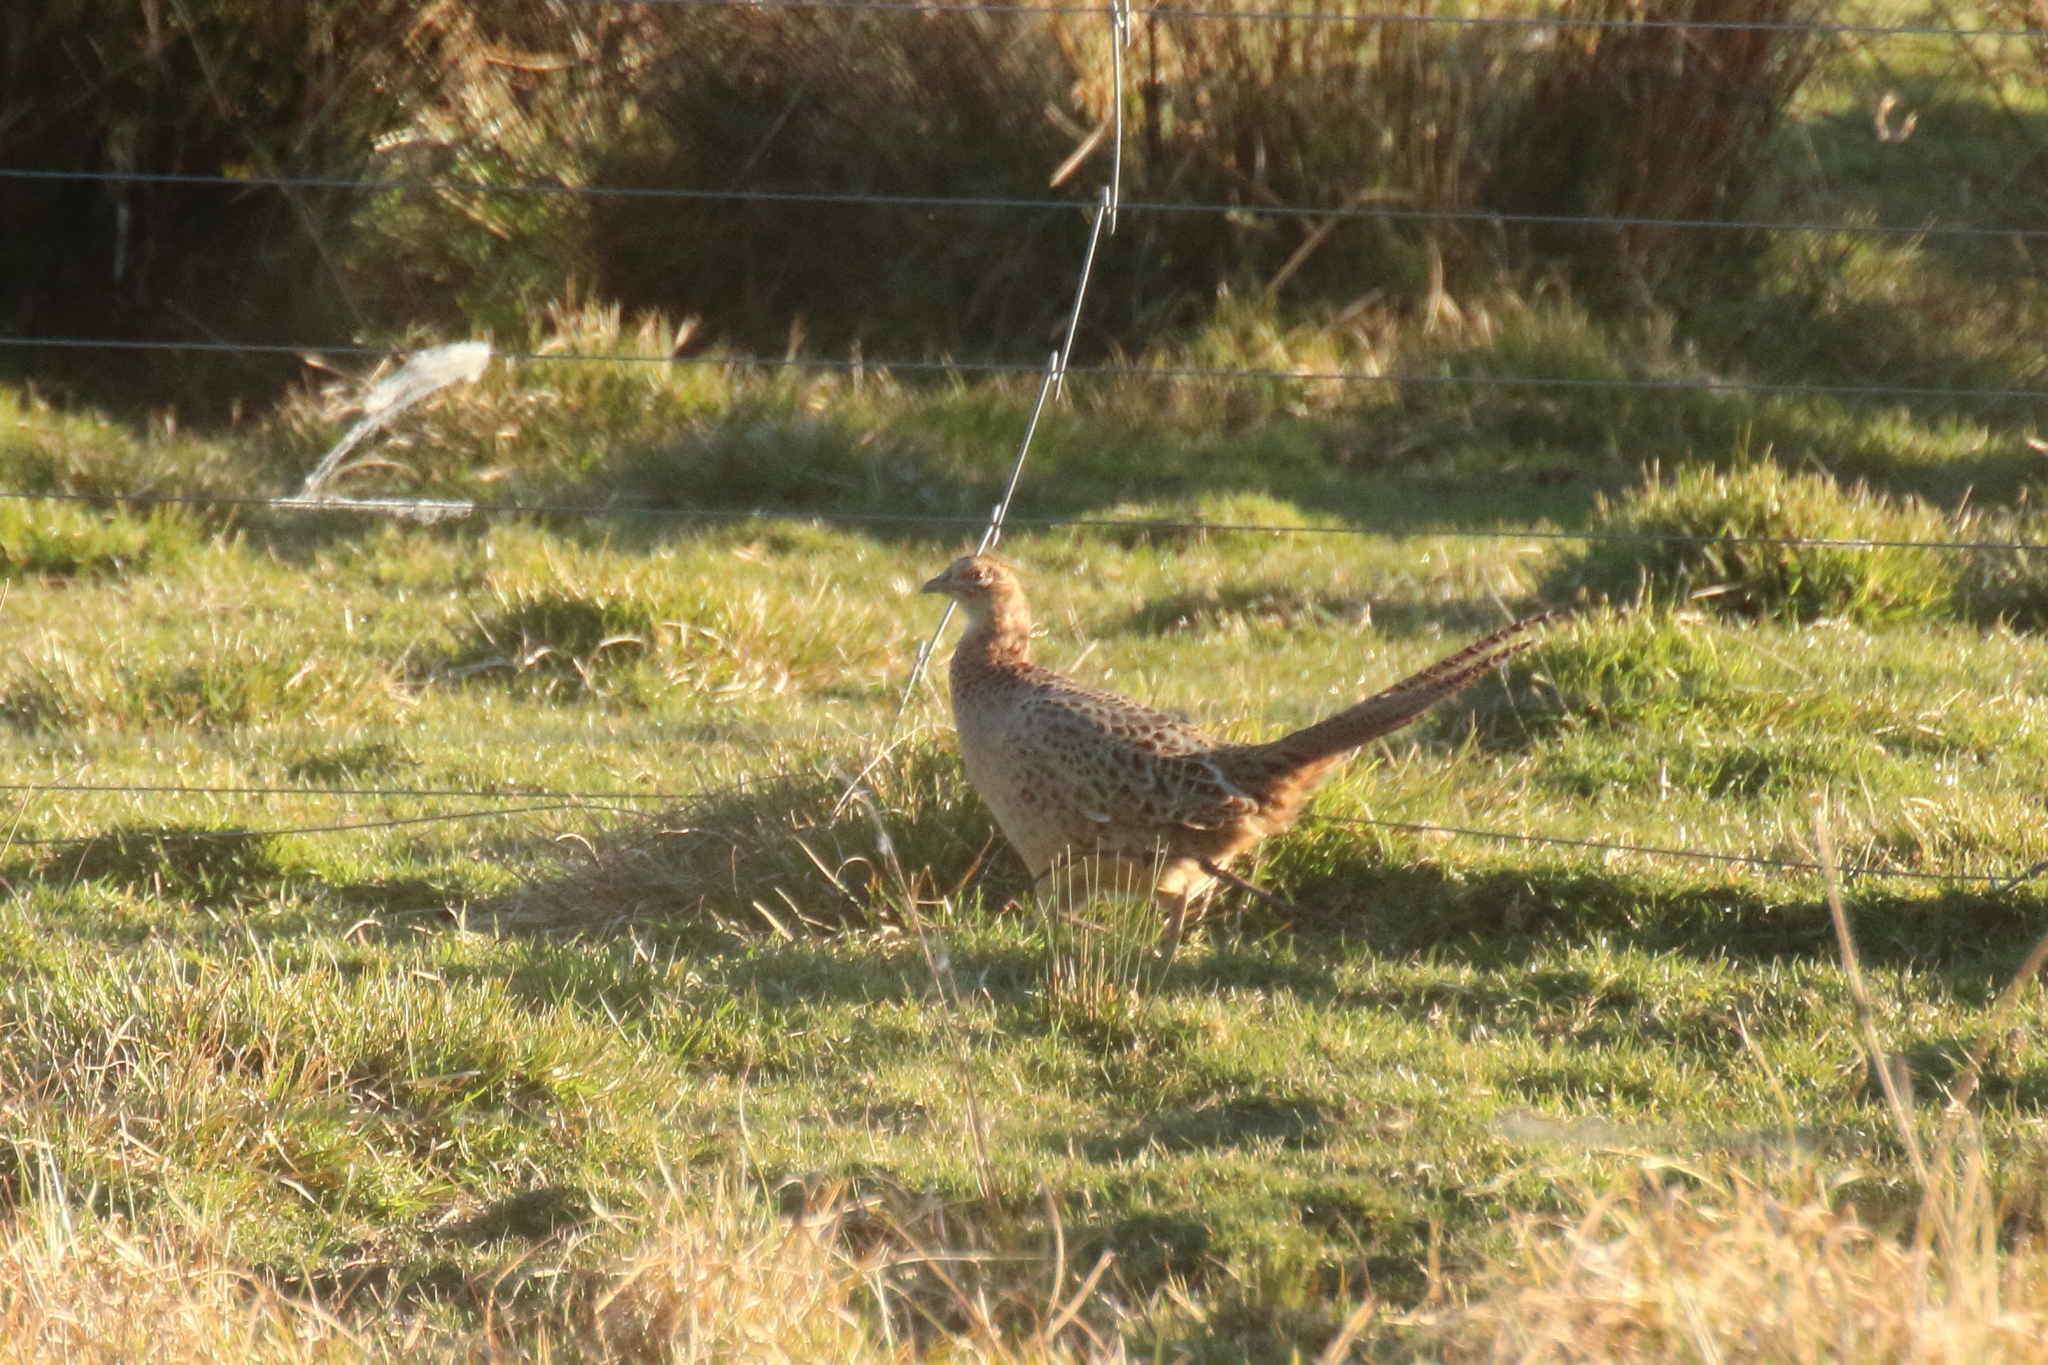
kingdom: Animalia
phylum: Chordata
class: Aves
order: Galliformes
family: Phasianidae
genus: Phasianus
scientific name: Phasianus colchicus
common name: Common pheasant
